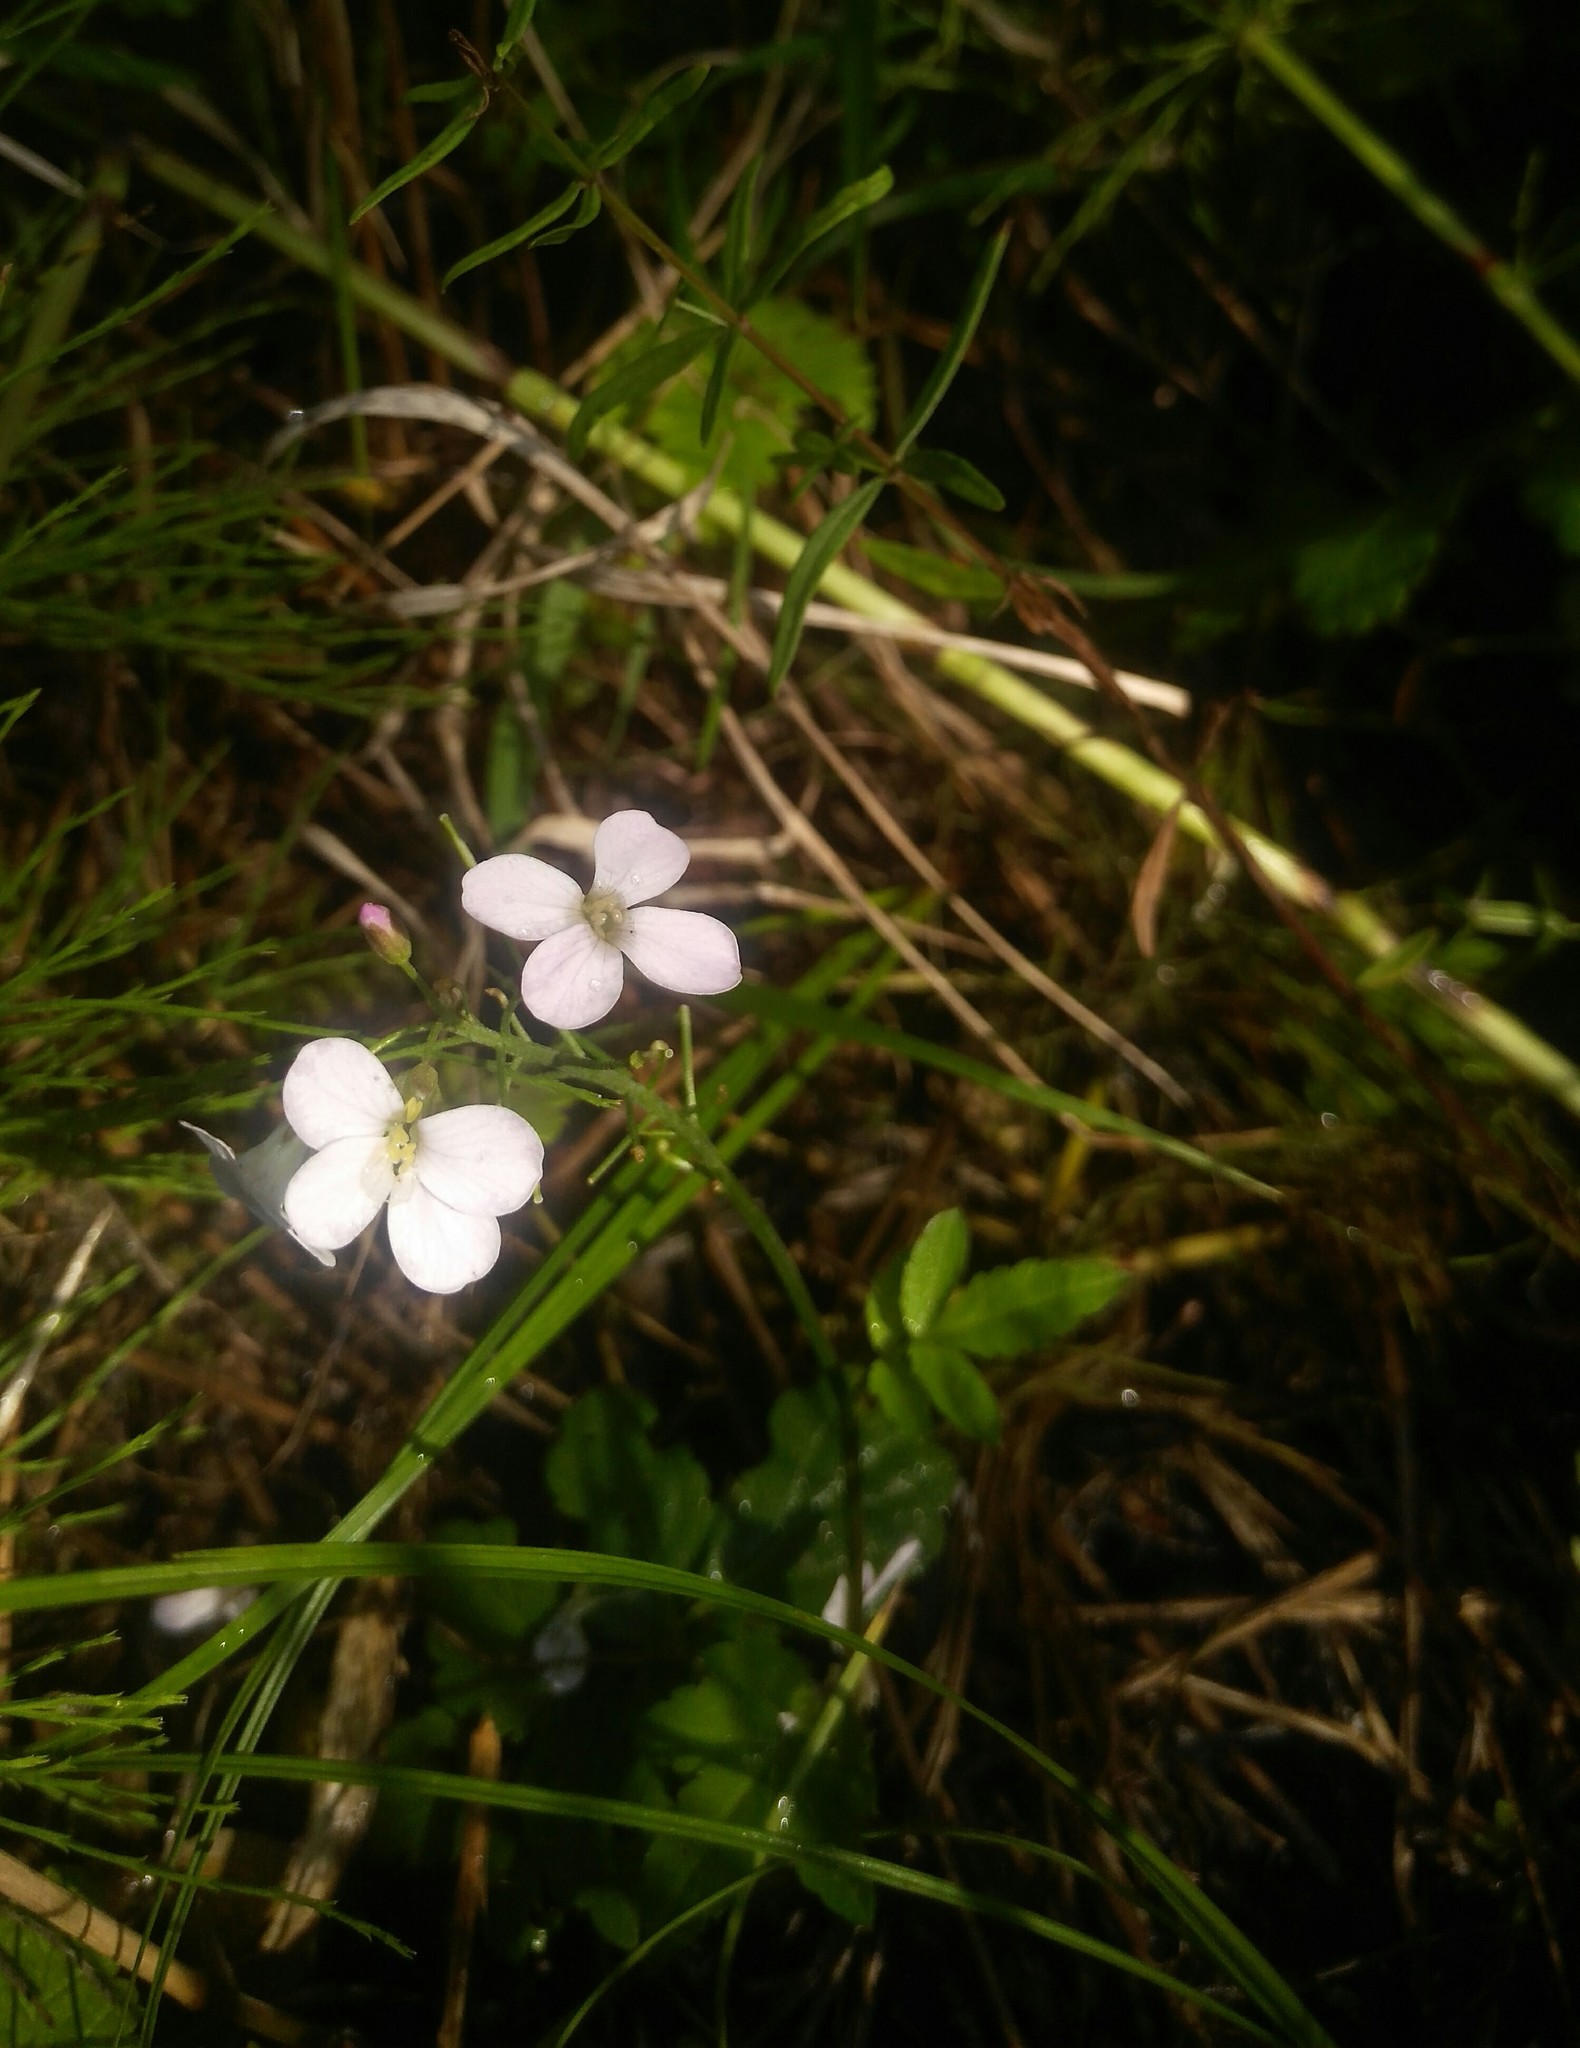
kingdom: Plantae
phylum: Tracheophyta
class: Magnoliopsida
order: Brassicales
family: Brassicaceae
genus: Cardamine
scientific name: Cardamine pratensis
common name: Cuckoo flower
